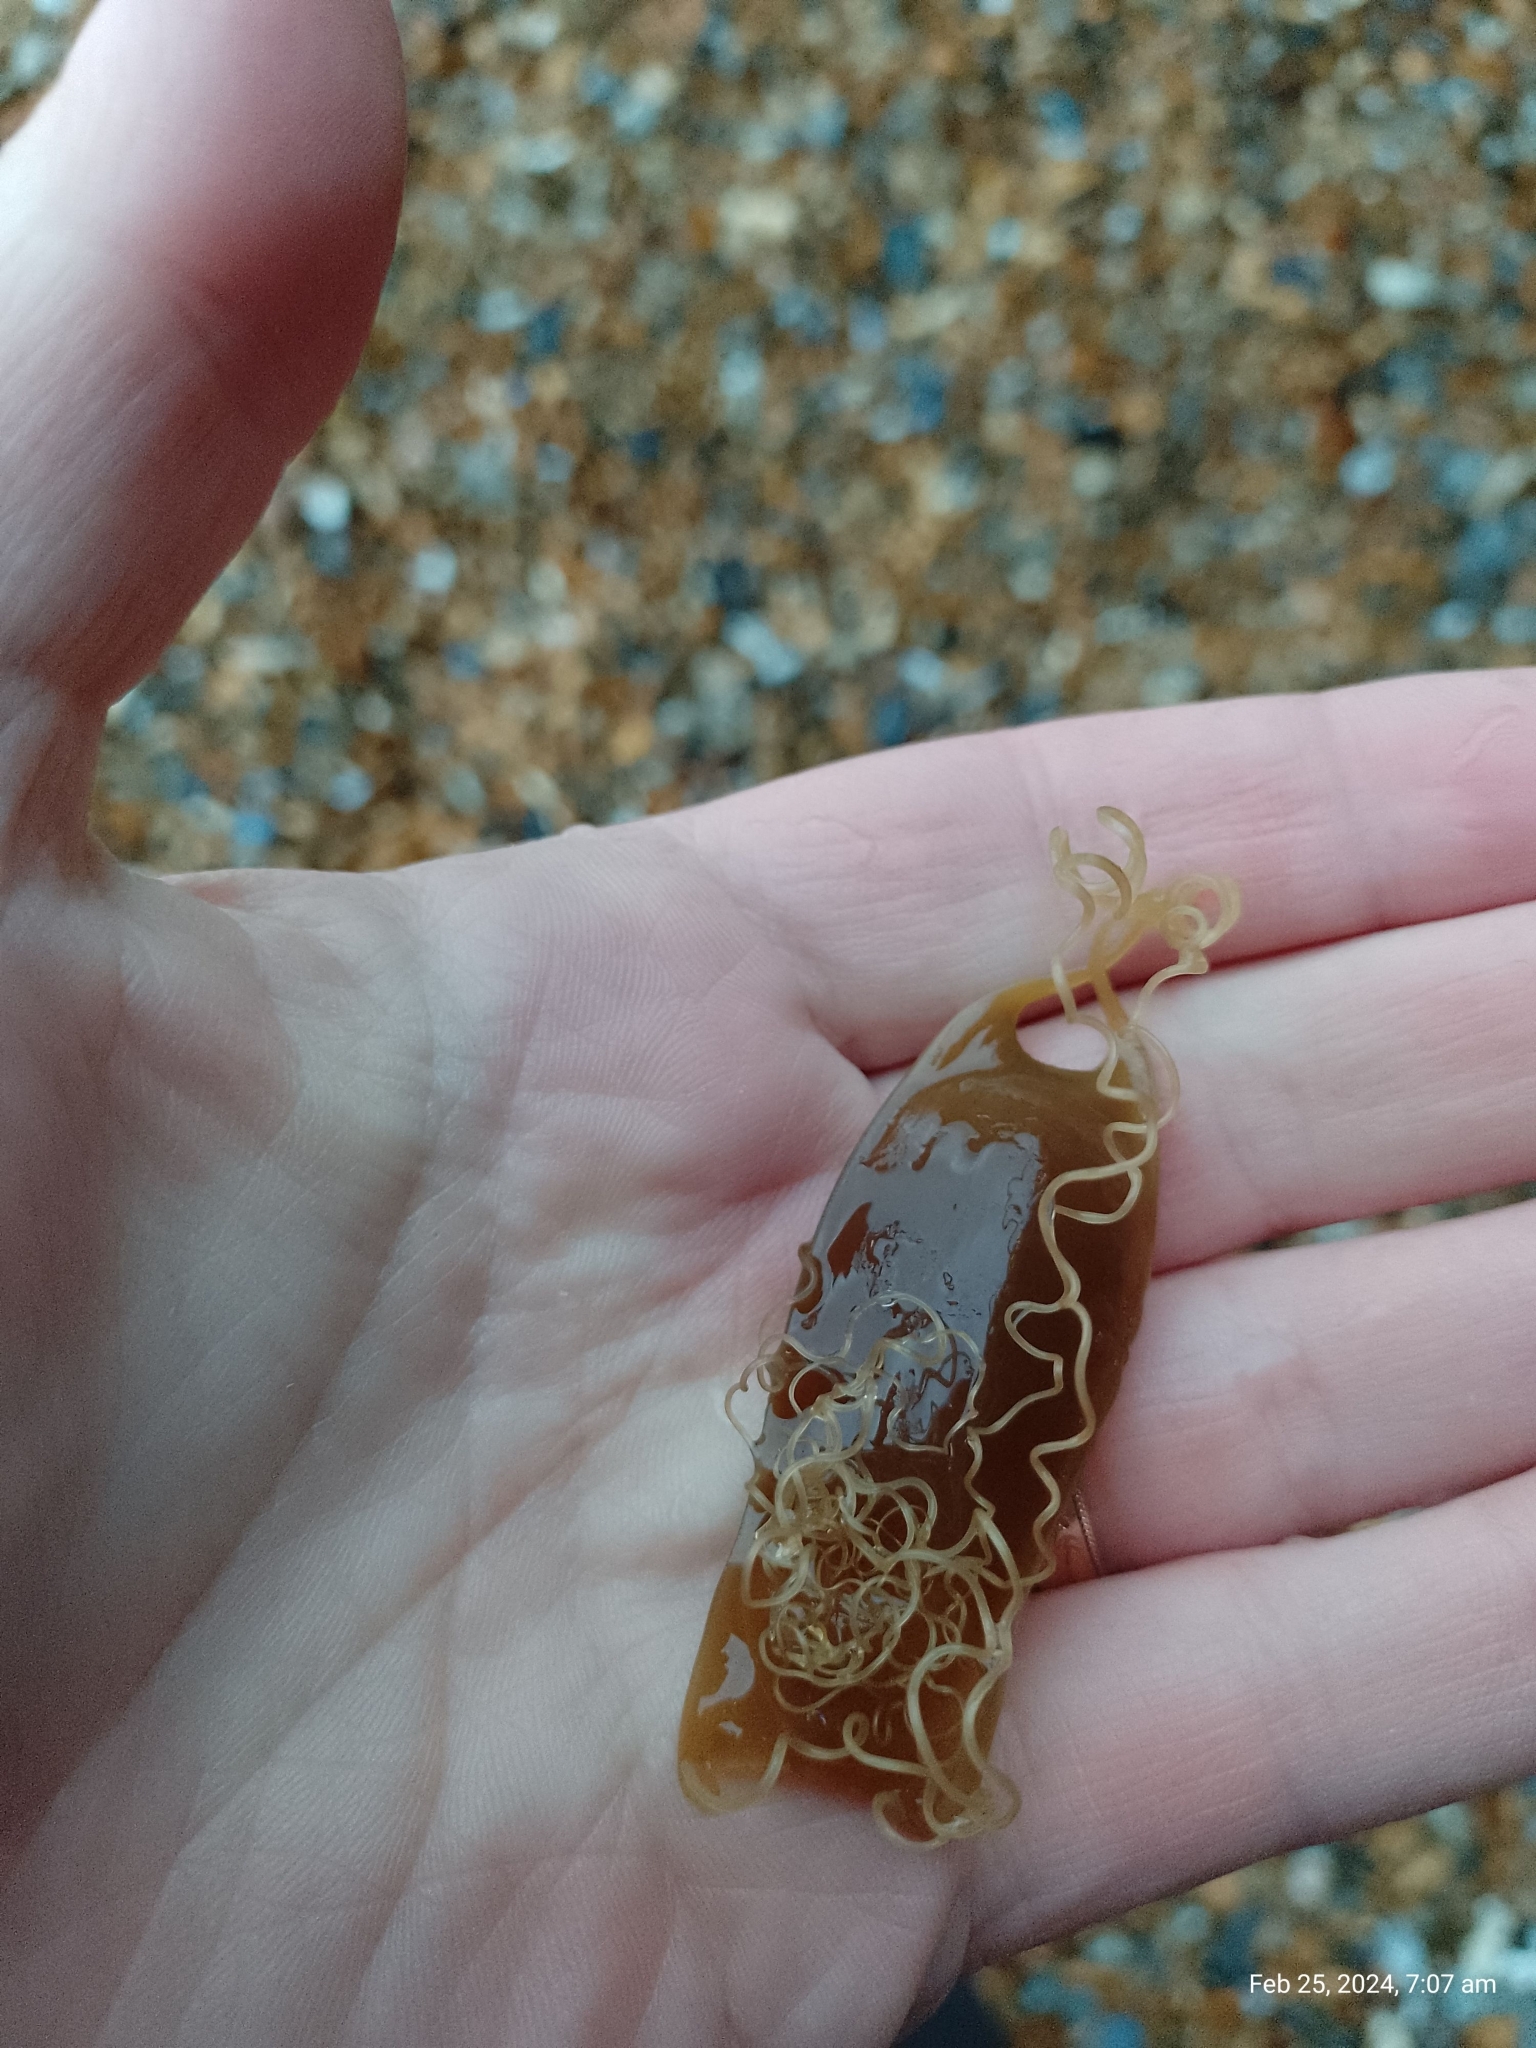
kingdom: Animalia
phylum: Chordata
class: Elasmobranchii
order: Carcharhiniformes
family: Scyliorhinidae
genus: Scyliorhinus
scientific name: Scyliorhinus canicula
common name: Lesser spotted dogfish
